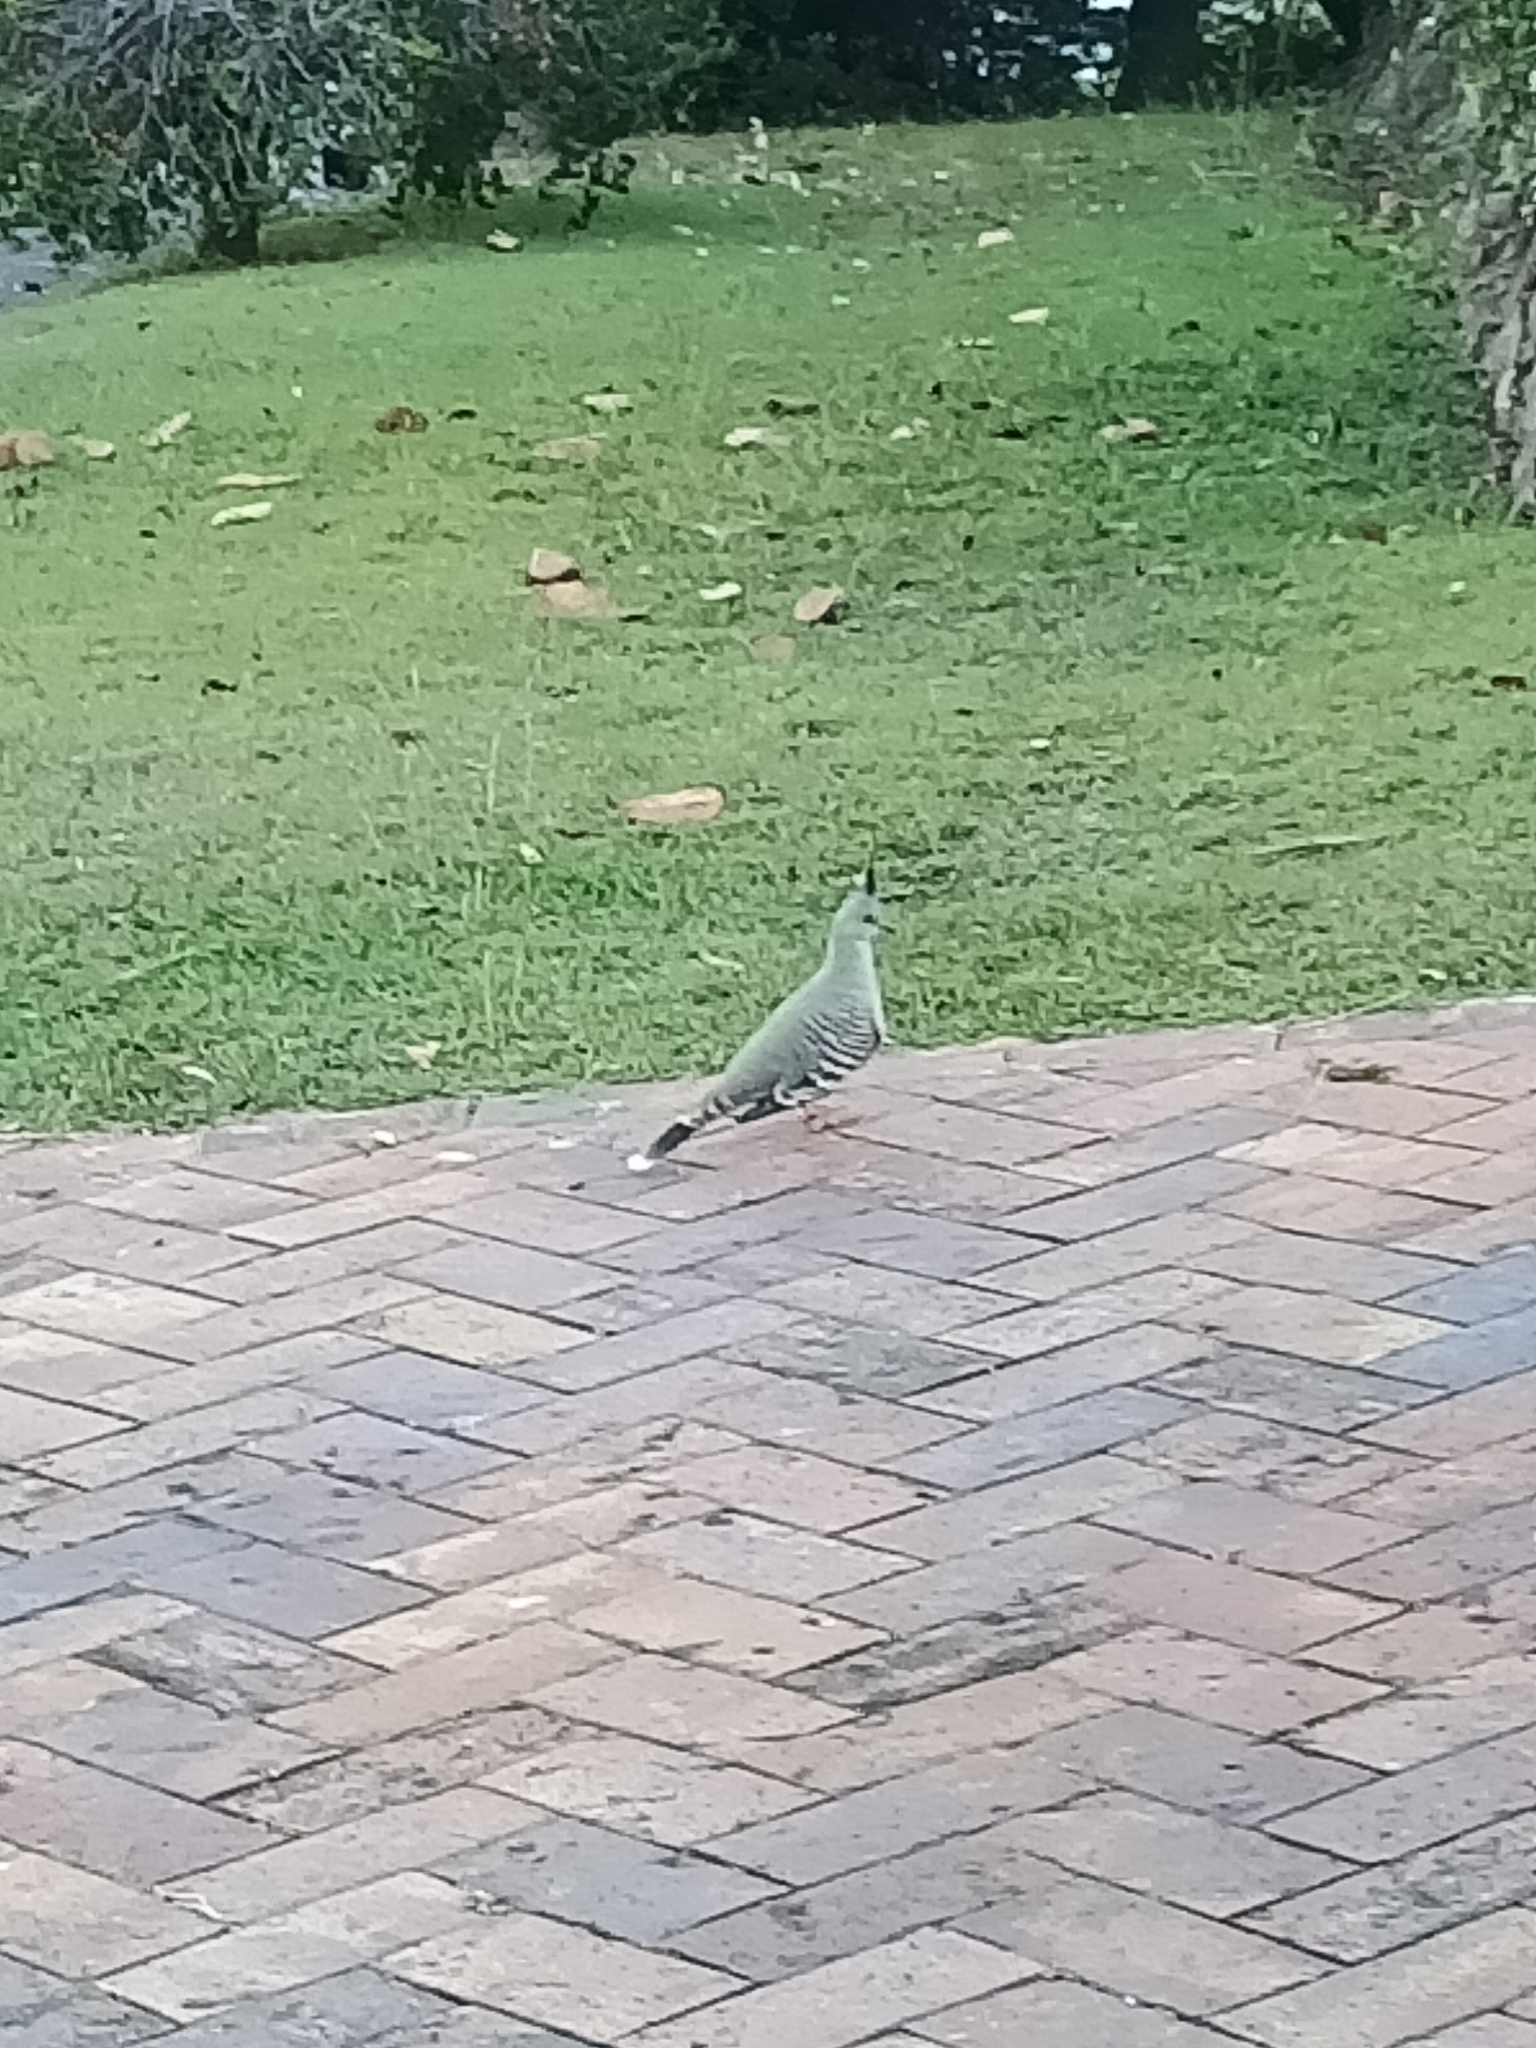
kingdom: Animalia
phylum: Chordata
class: Aves
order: Columbiformes
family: Columbidae
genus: Ocyphaps
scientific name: Ocyphaps lophotes
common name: Crested pigeon
